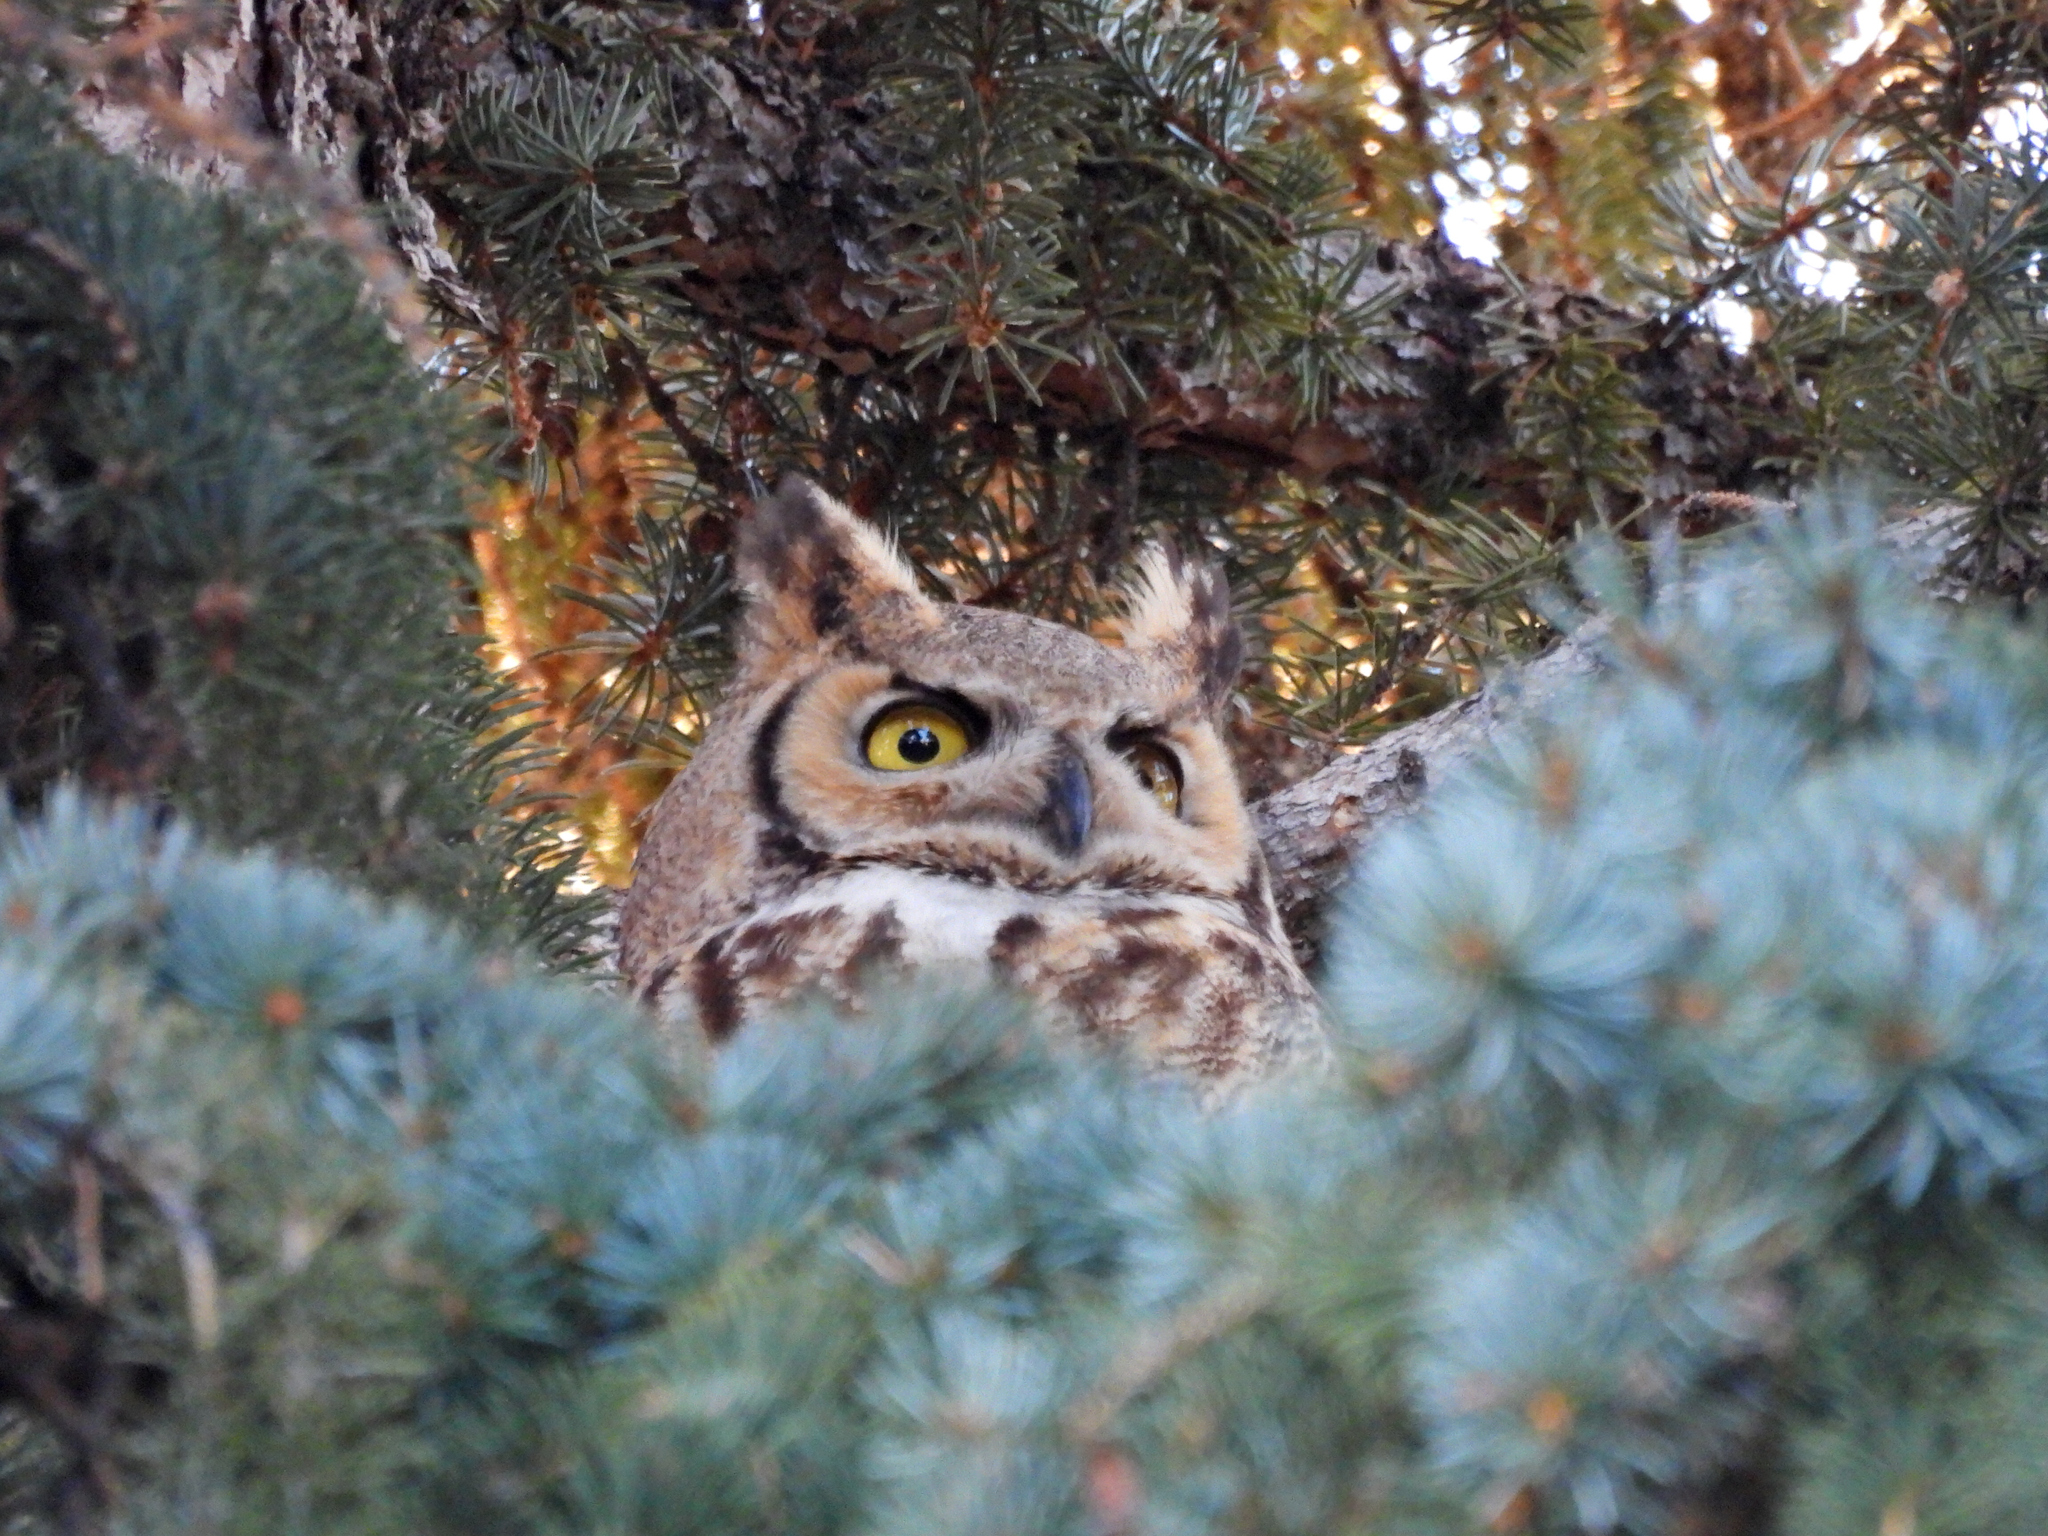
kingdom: Animalia
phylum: Chordata
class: Aves
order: Strigiformes
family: Strigidae
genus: Bubo
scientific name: Bubo virginianus
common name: Great horned owl
